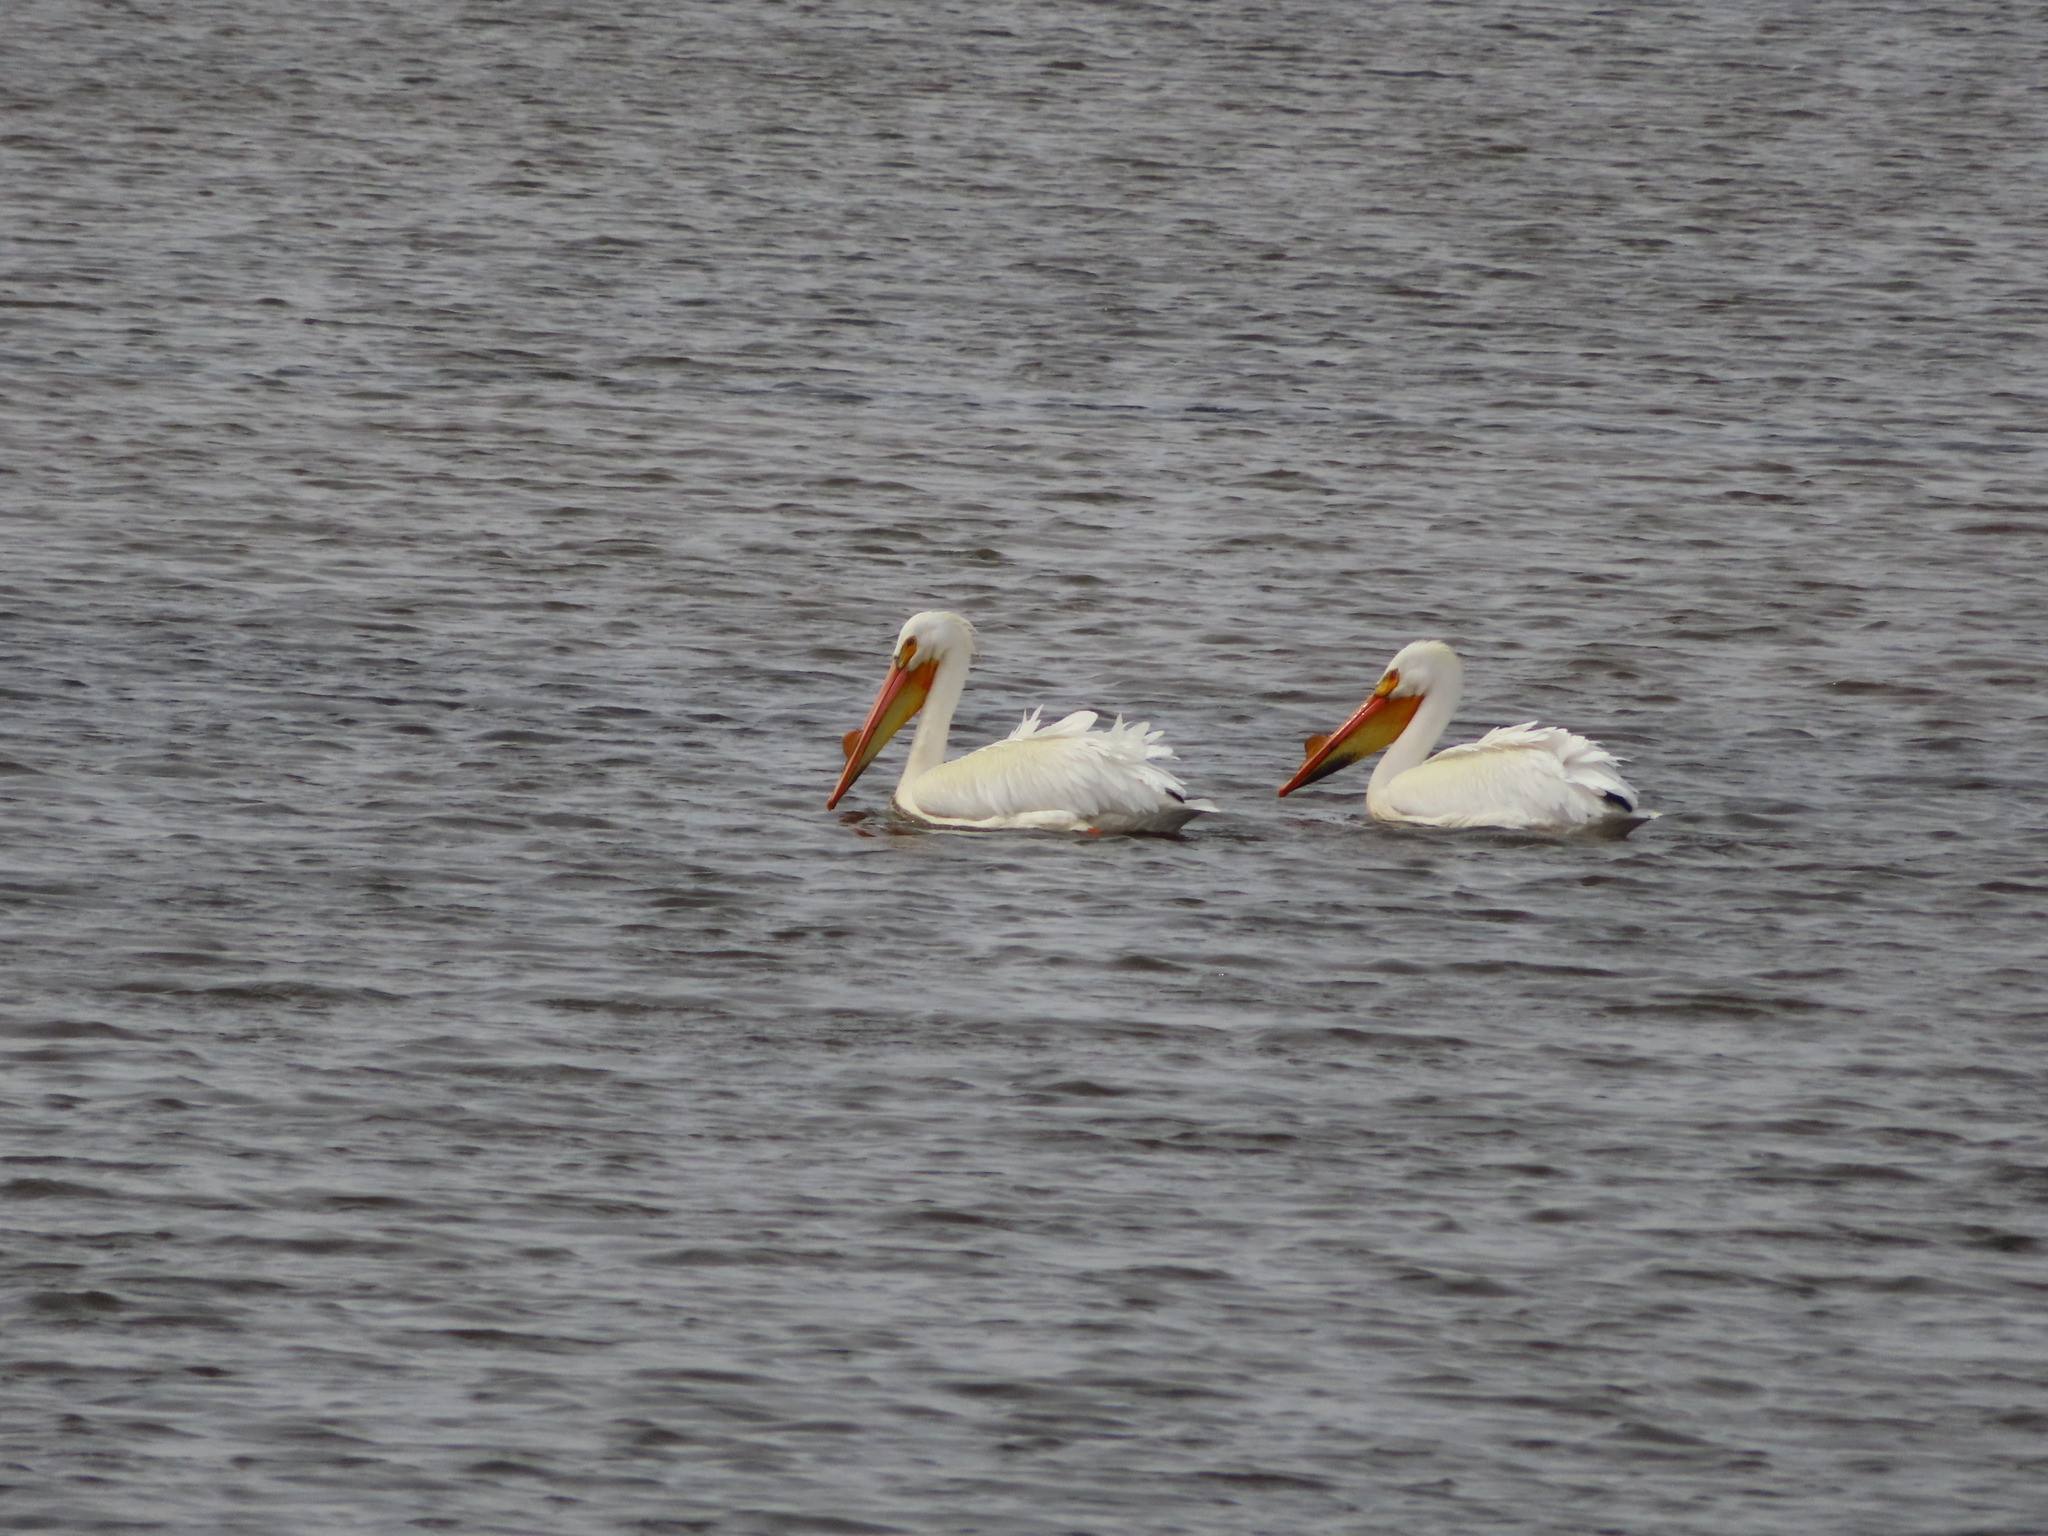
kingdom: Animalia
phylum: Chordata
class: Aves
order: Pelecaniformes
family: Pelecanidae
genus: Pelecanus
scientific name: Pelecanus erythrorhynchos
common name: American white pelican
